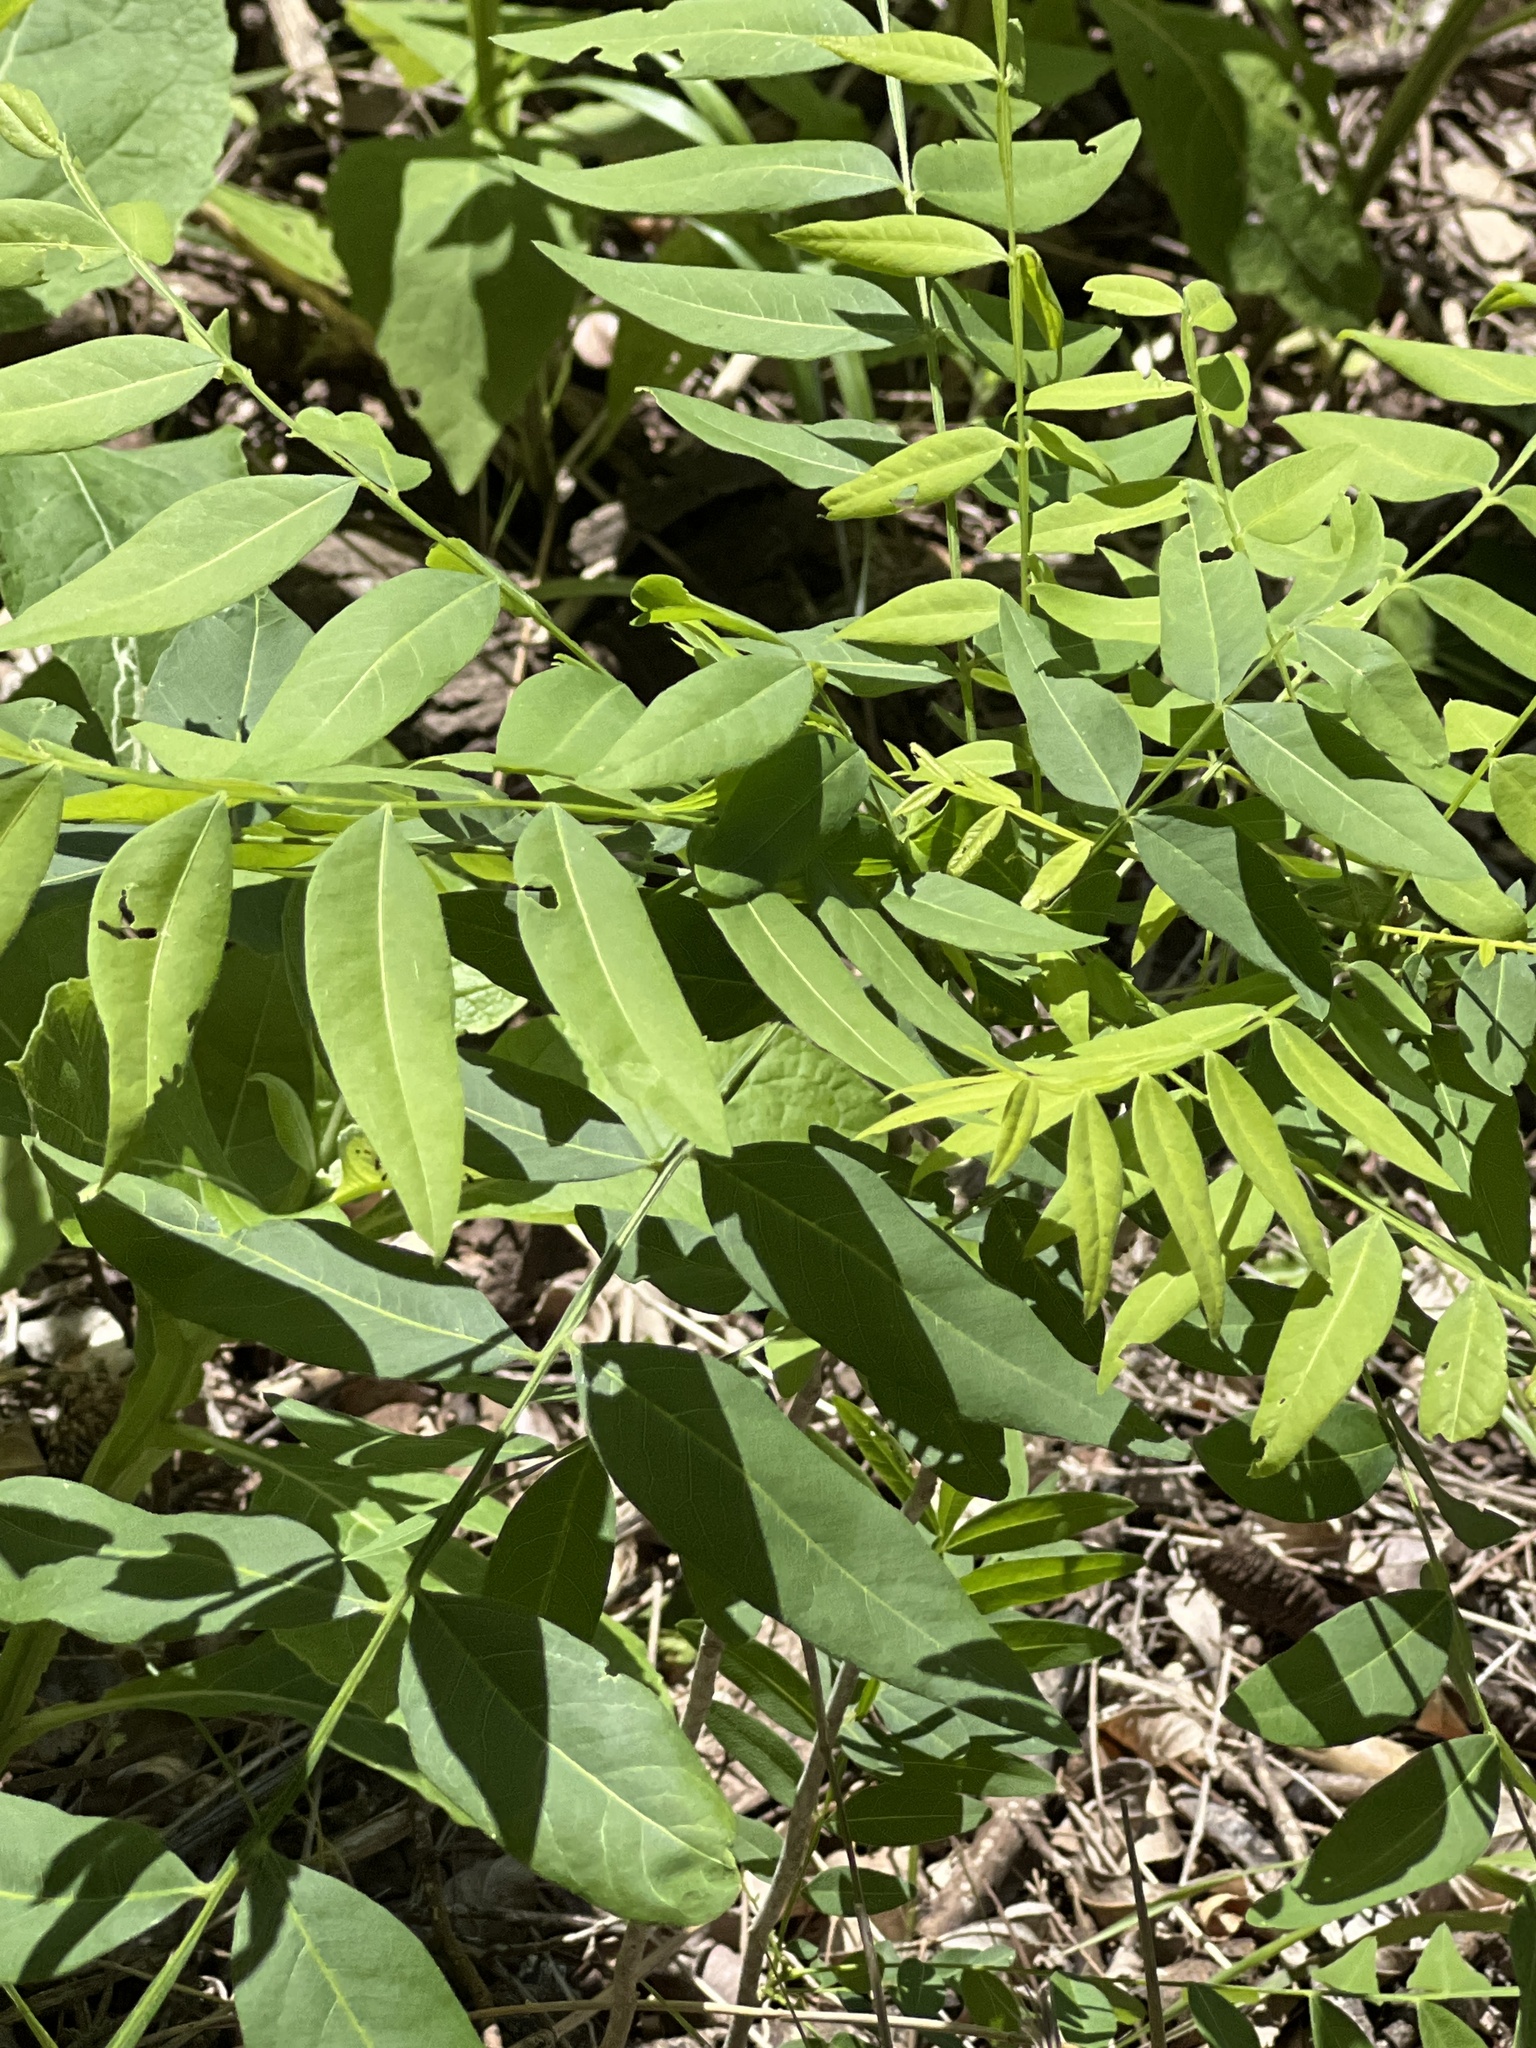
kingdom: Plantae
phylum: Tracheophyta
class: Magnoliopsida
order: Sapindales
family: Sapindaceae
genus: Sapindus
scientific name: Sapindus drummondii
